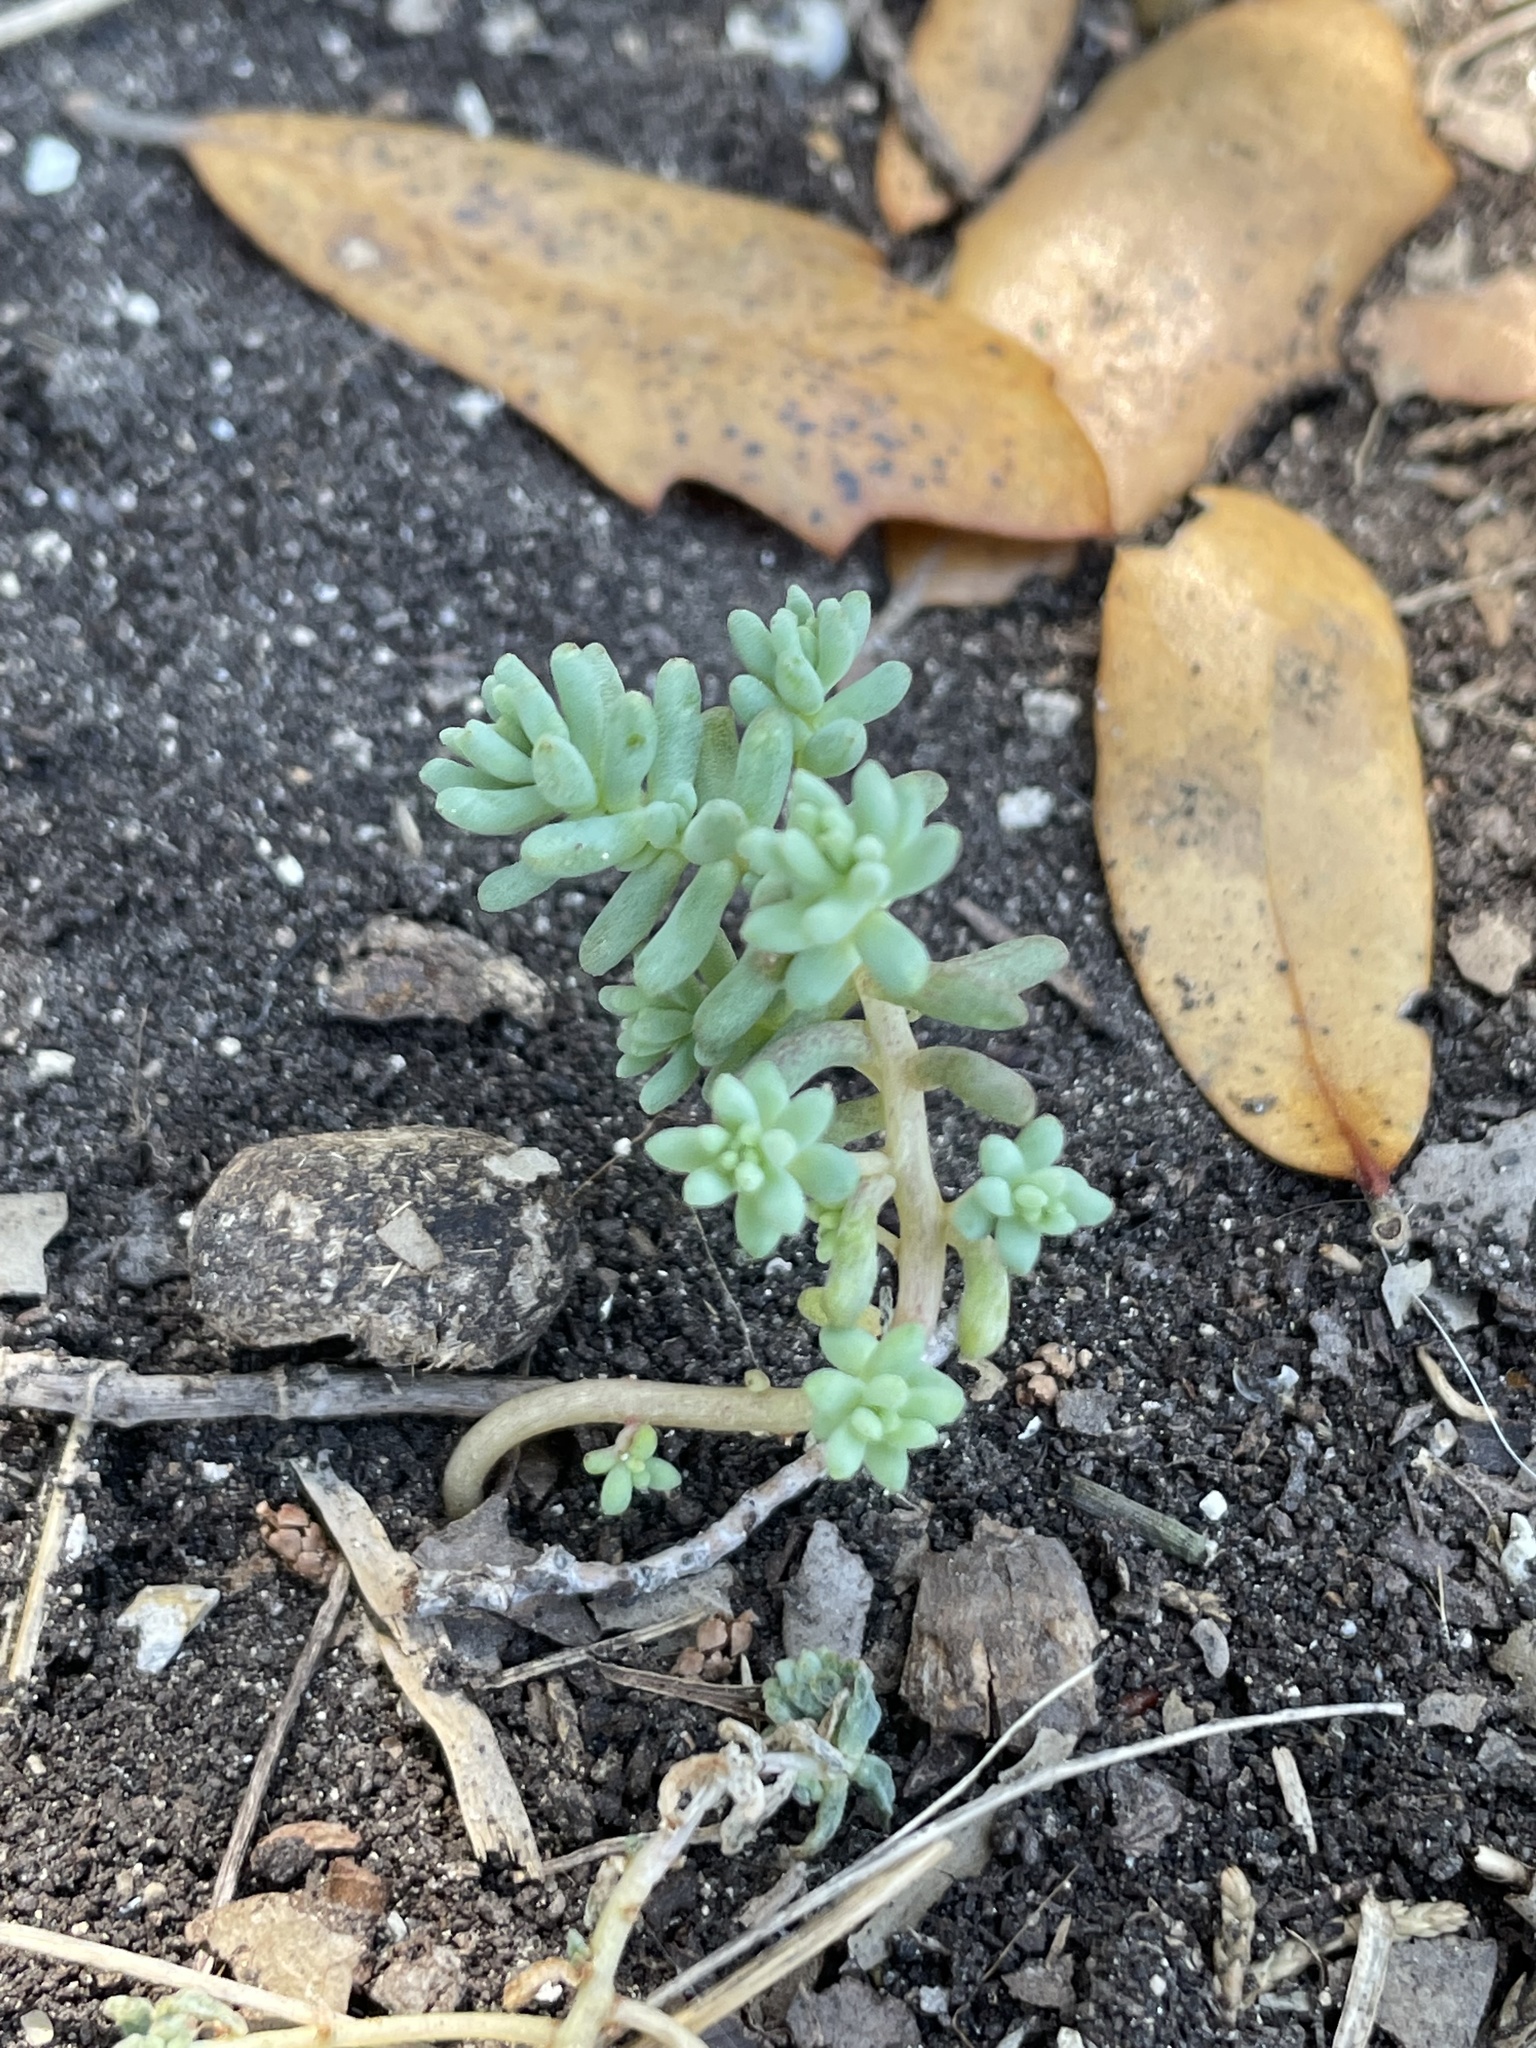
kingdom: Plantae
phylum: Tracheophyta
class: Magnoliopsida
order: Saxifragales
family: Crassulaceae
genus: Sedum
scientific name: Sedum nuttallii
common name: Yellow stonecrop
